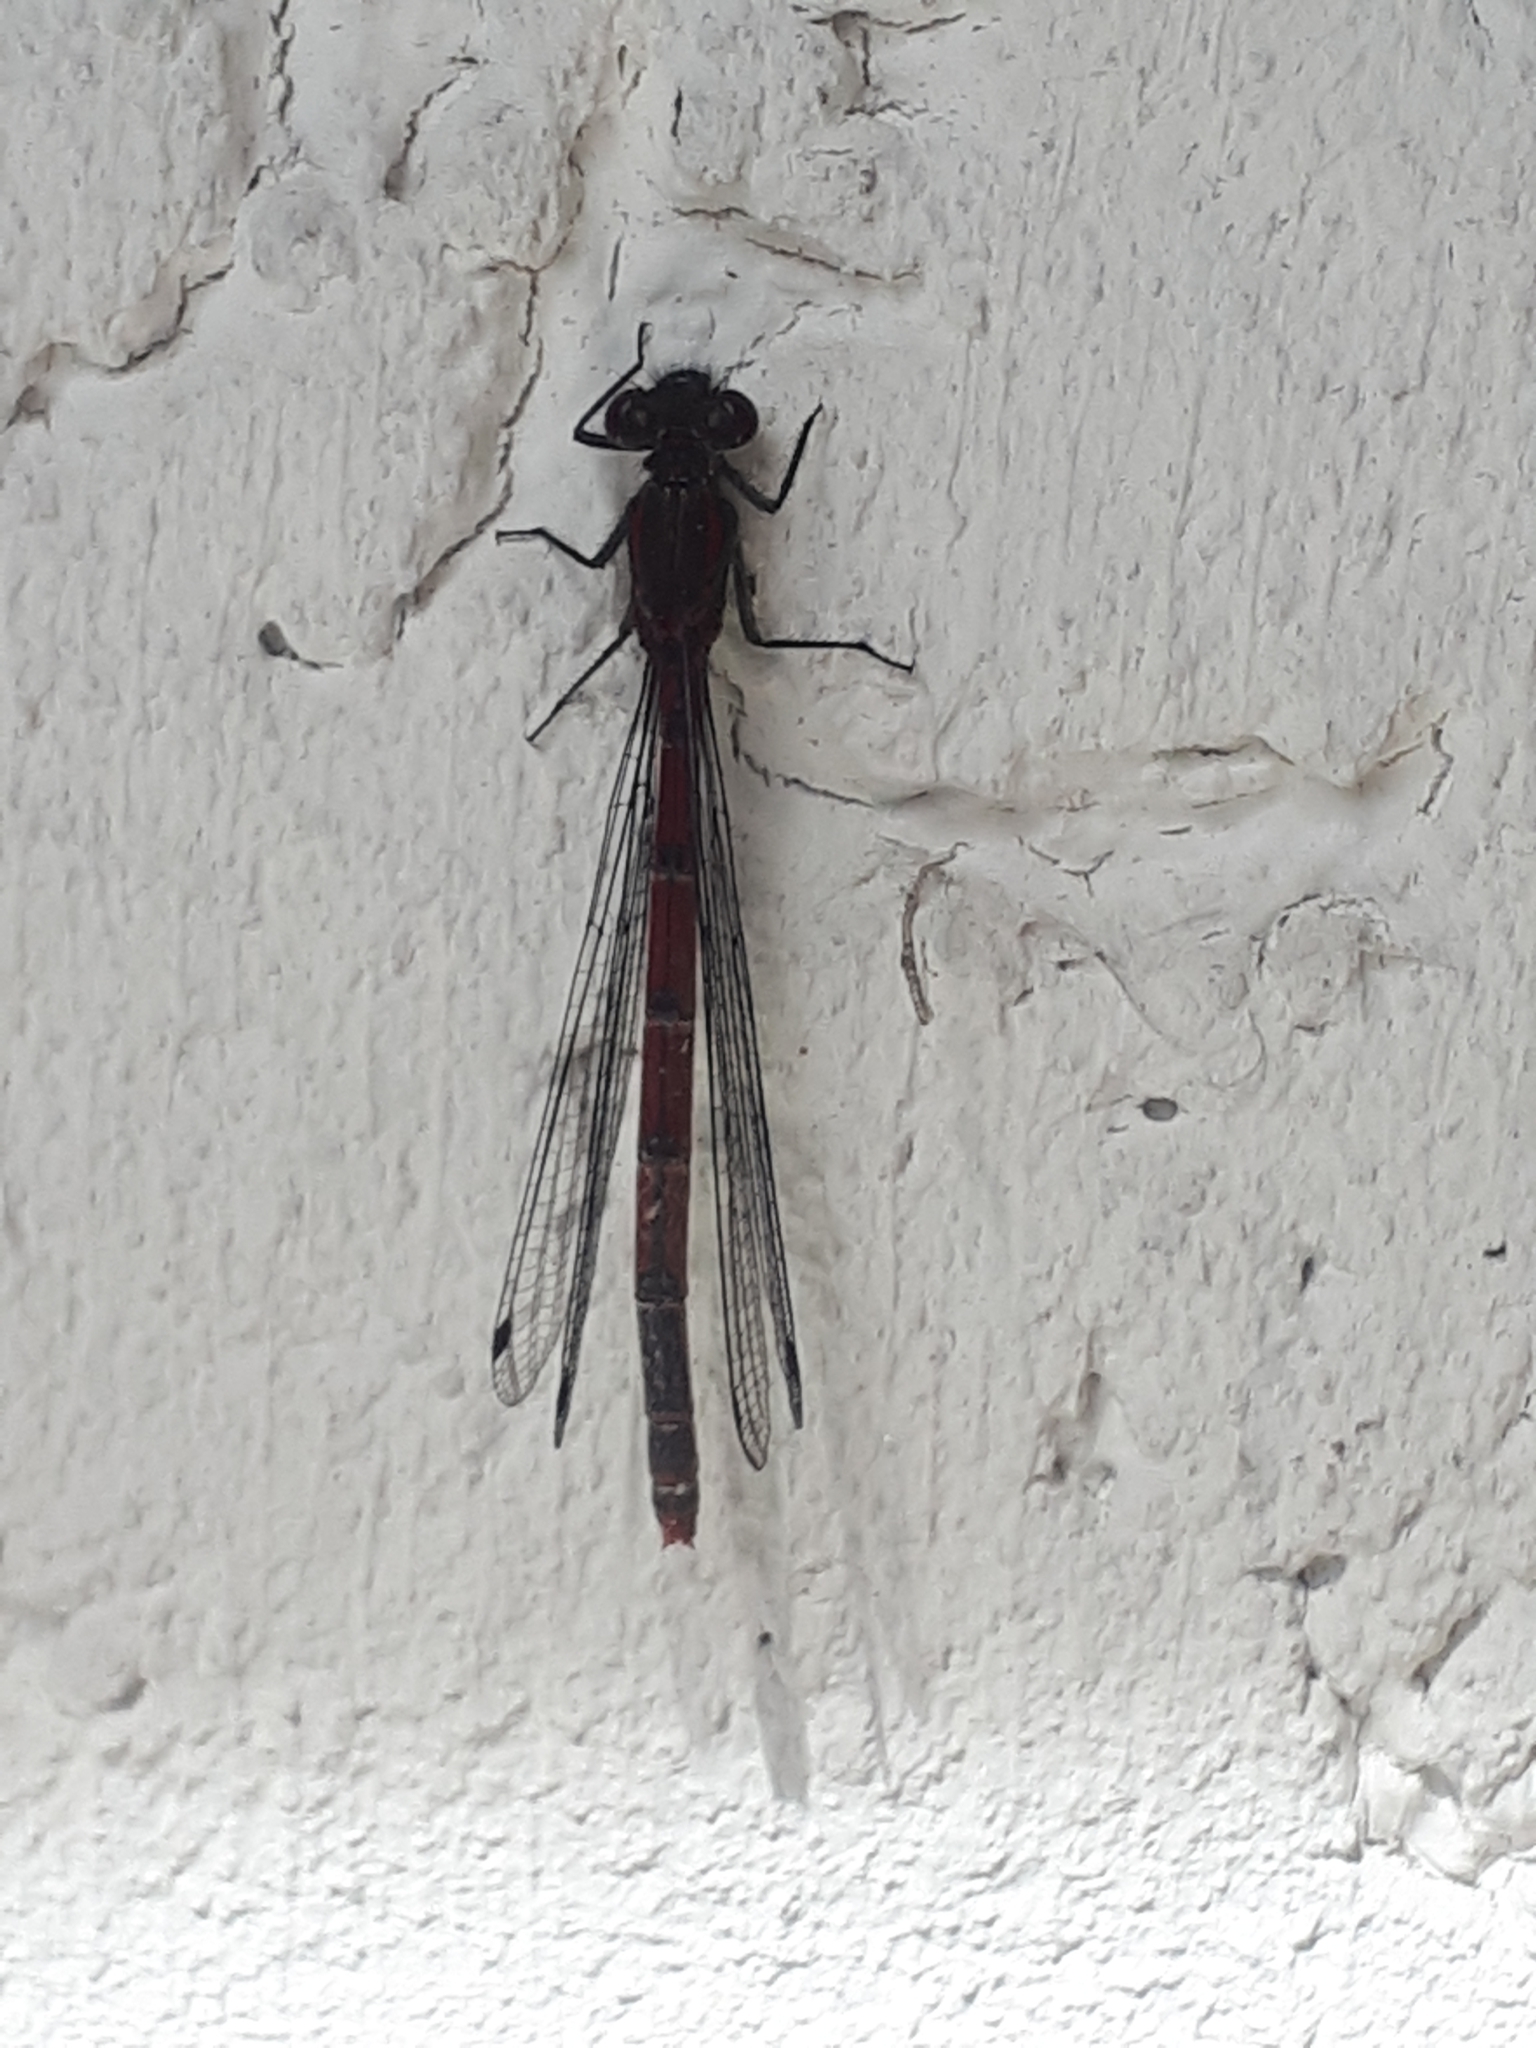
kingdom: Animalia
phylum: Arthropoda
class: Insecta
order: Odonata
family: Coenagrionidae
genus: Pyrrhosoma
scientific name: Pyrrhosoma nymphula
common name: Large red damsel
